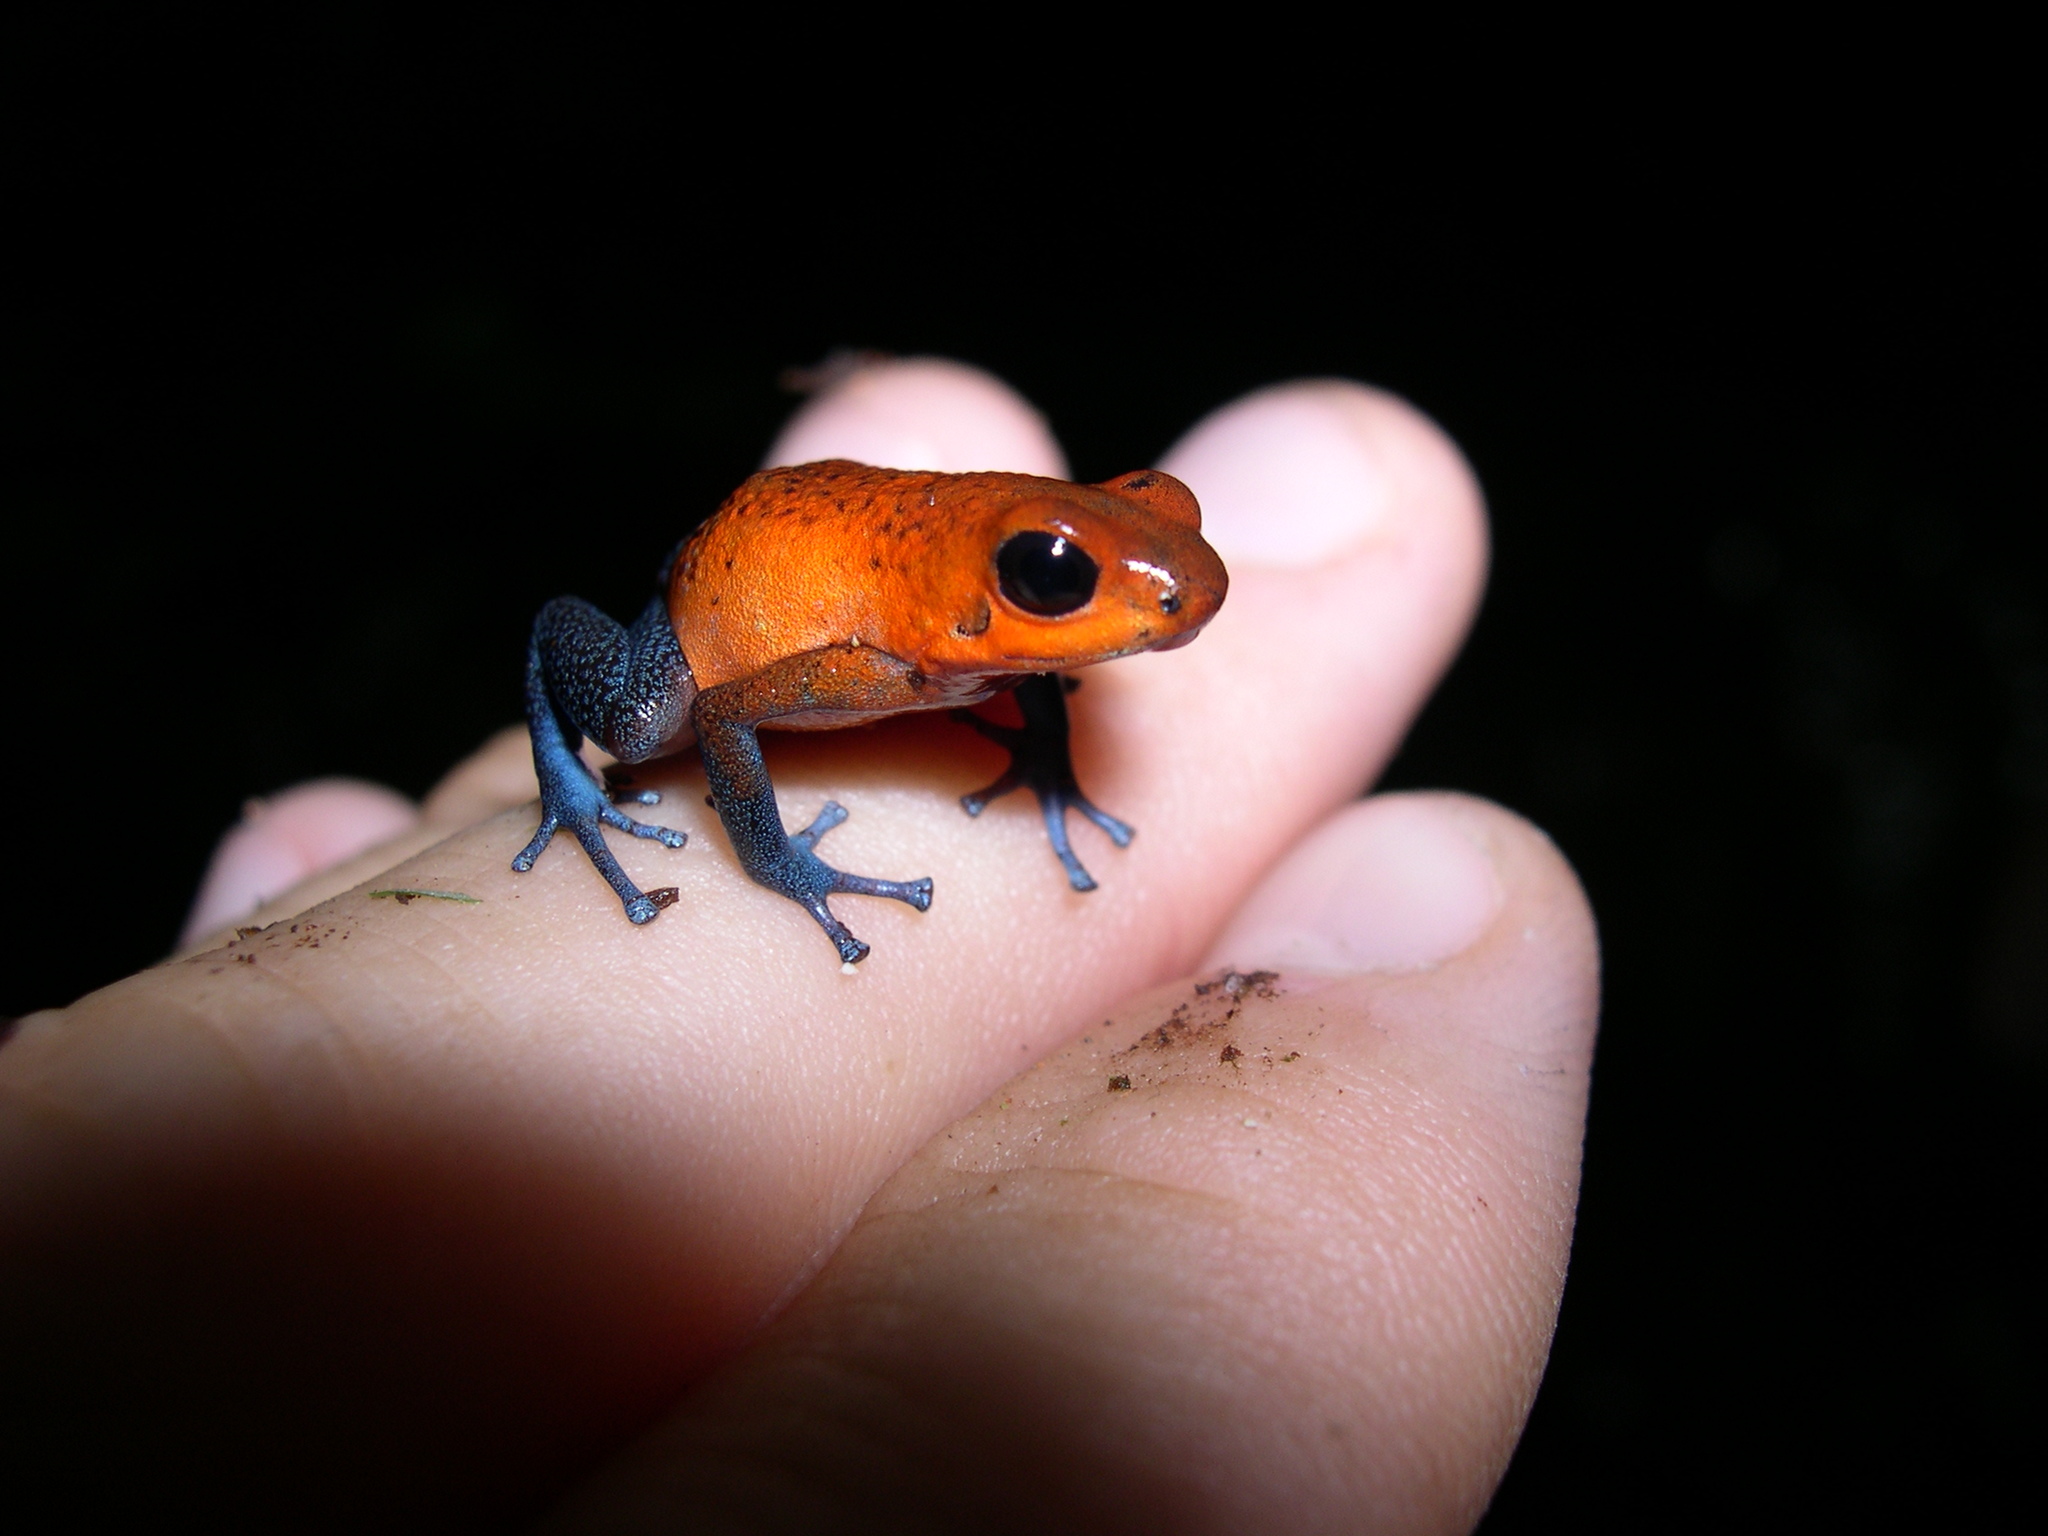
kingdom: Animalia
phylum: Chordata
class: Amphibia
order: Anura
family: Dendrobatidae
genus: Oophaga
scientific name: Oophaga pumilio
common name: Flaming poison frog
